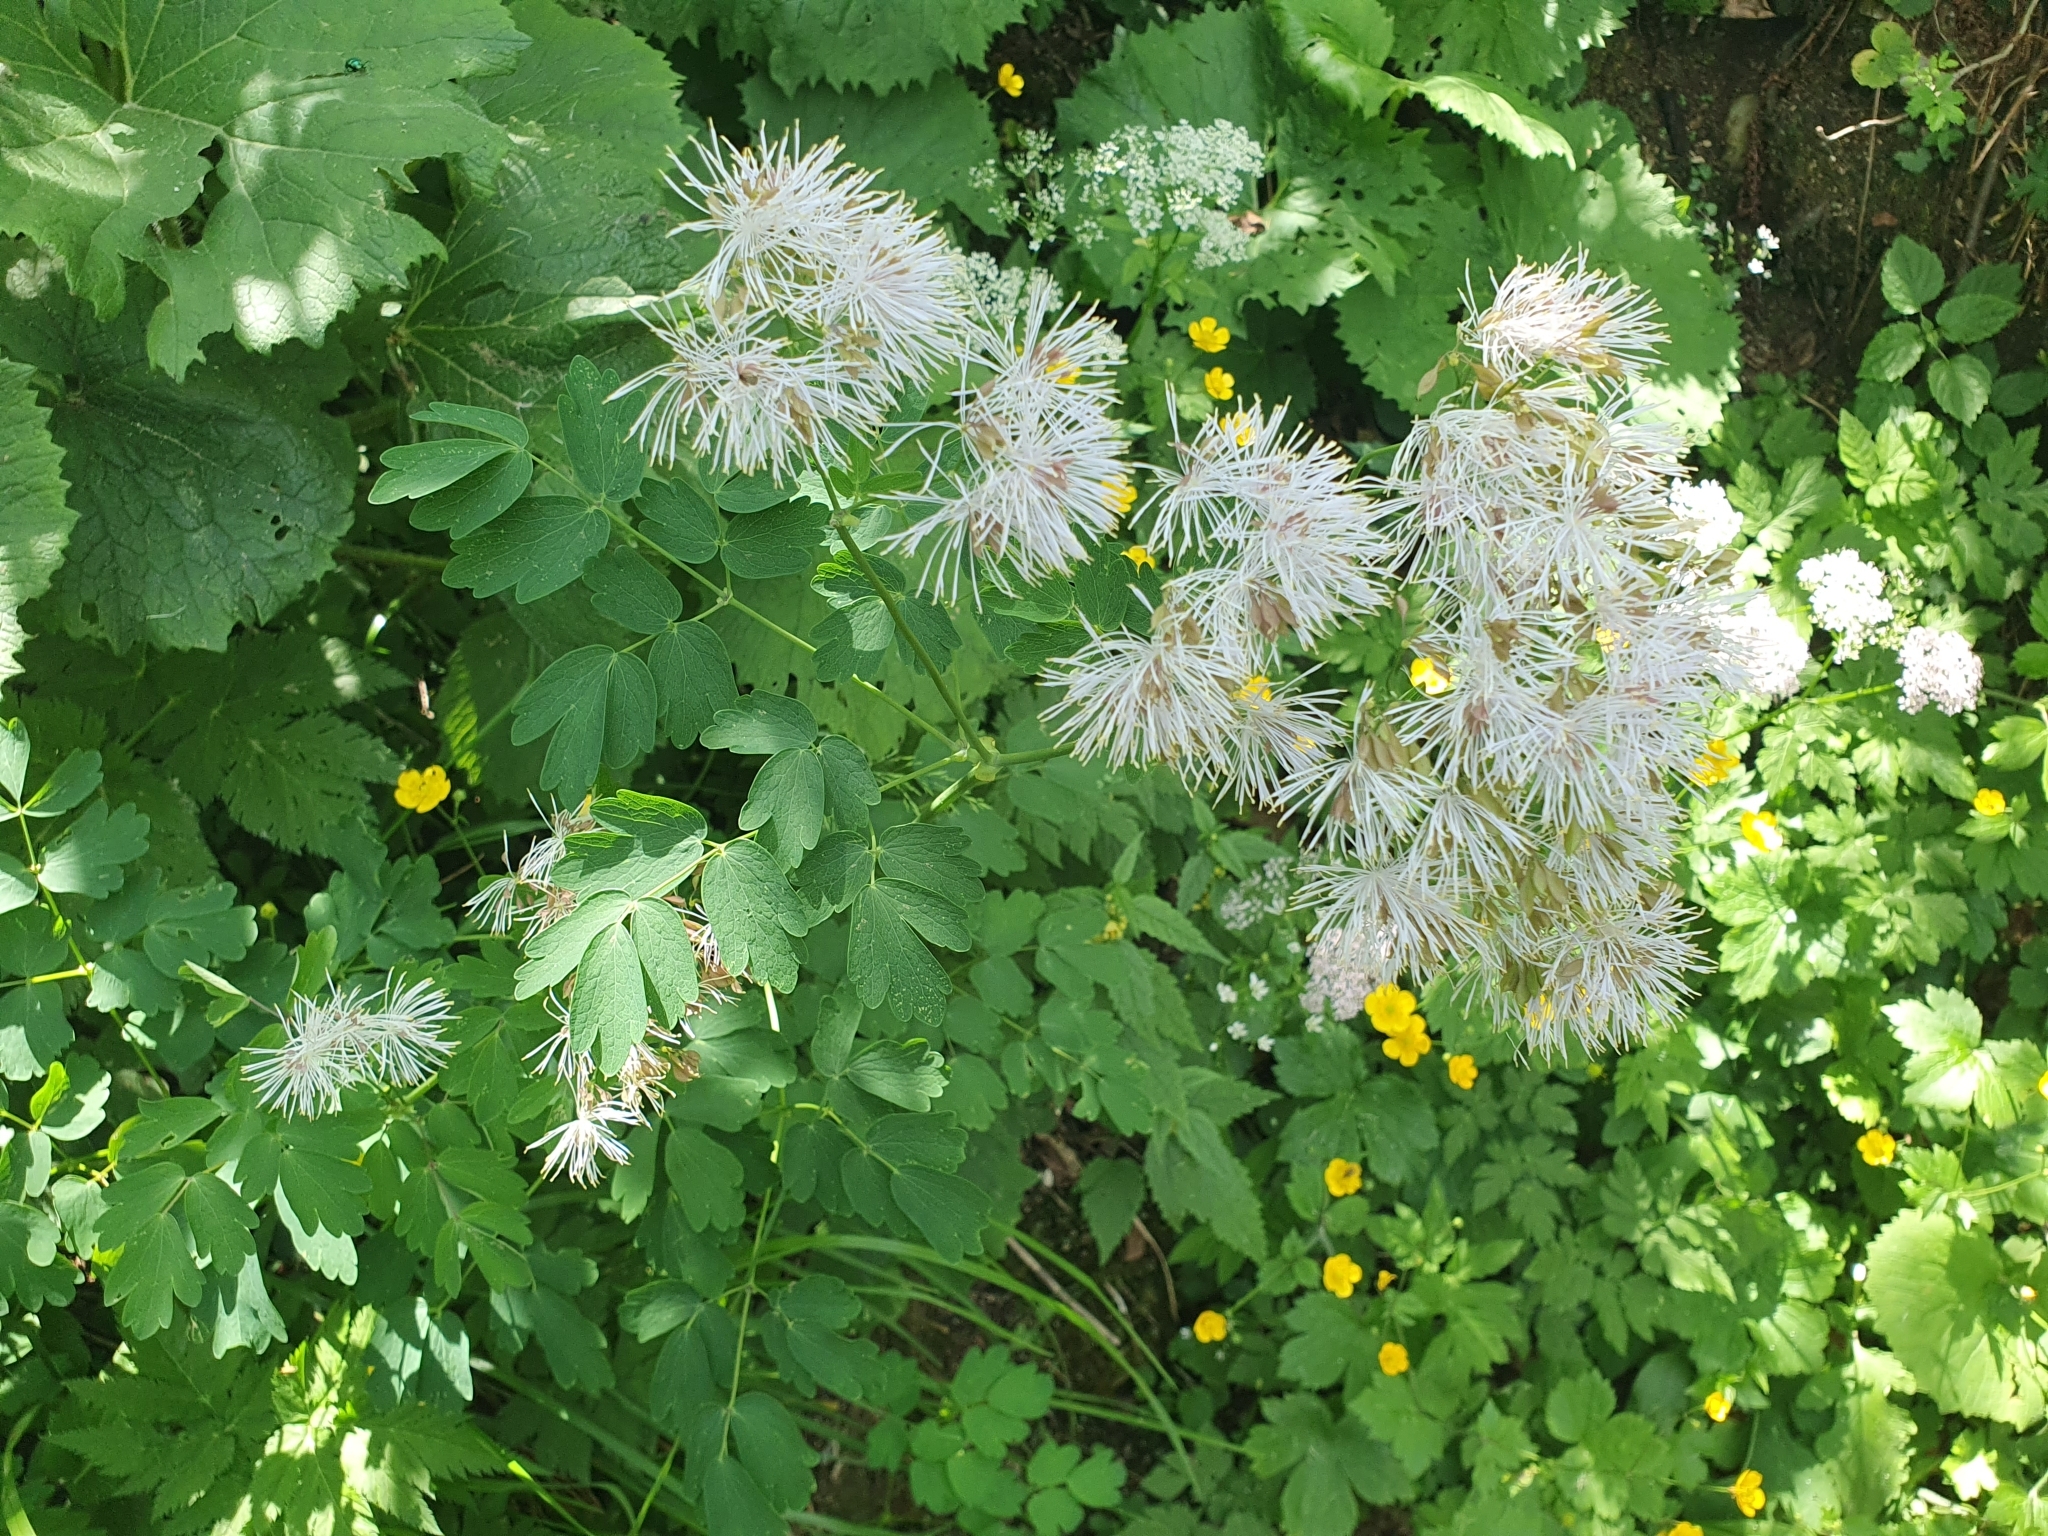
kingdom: Plantae
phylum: Tracheophyta
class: Magnoliopsida
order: Ranunculales
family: Ranunculaceae
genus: Thalictrum
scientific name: Thalictrum aquilegiifolium
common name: French meadow-rue
